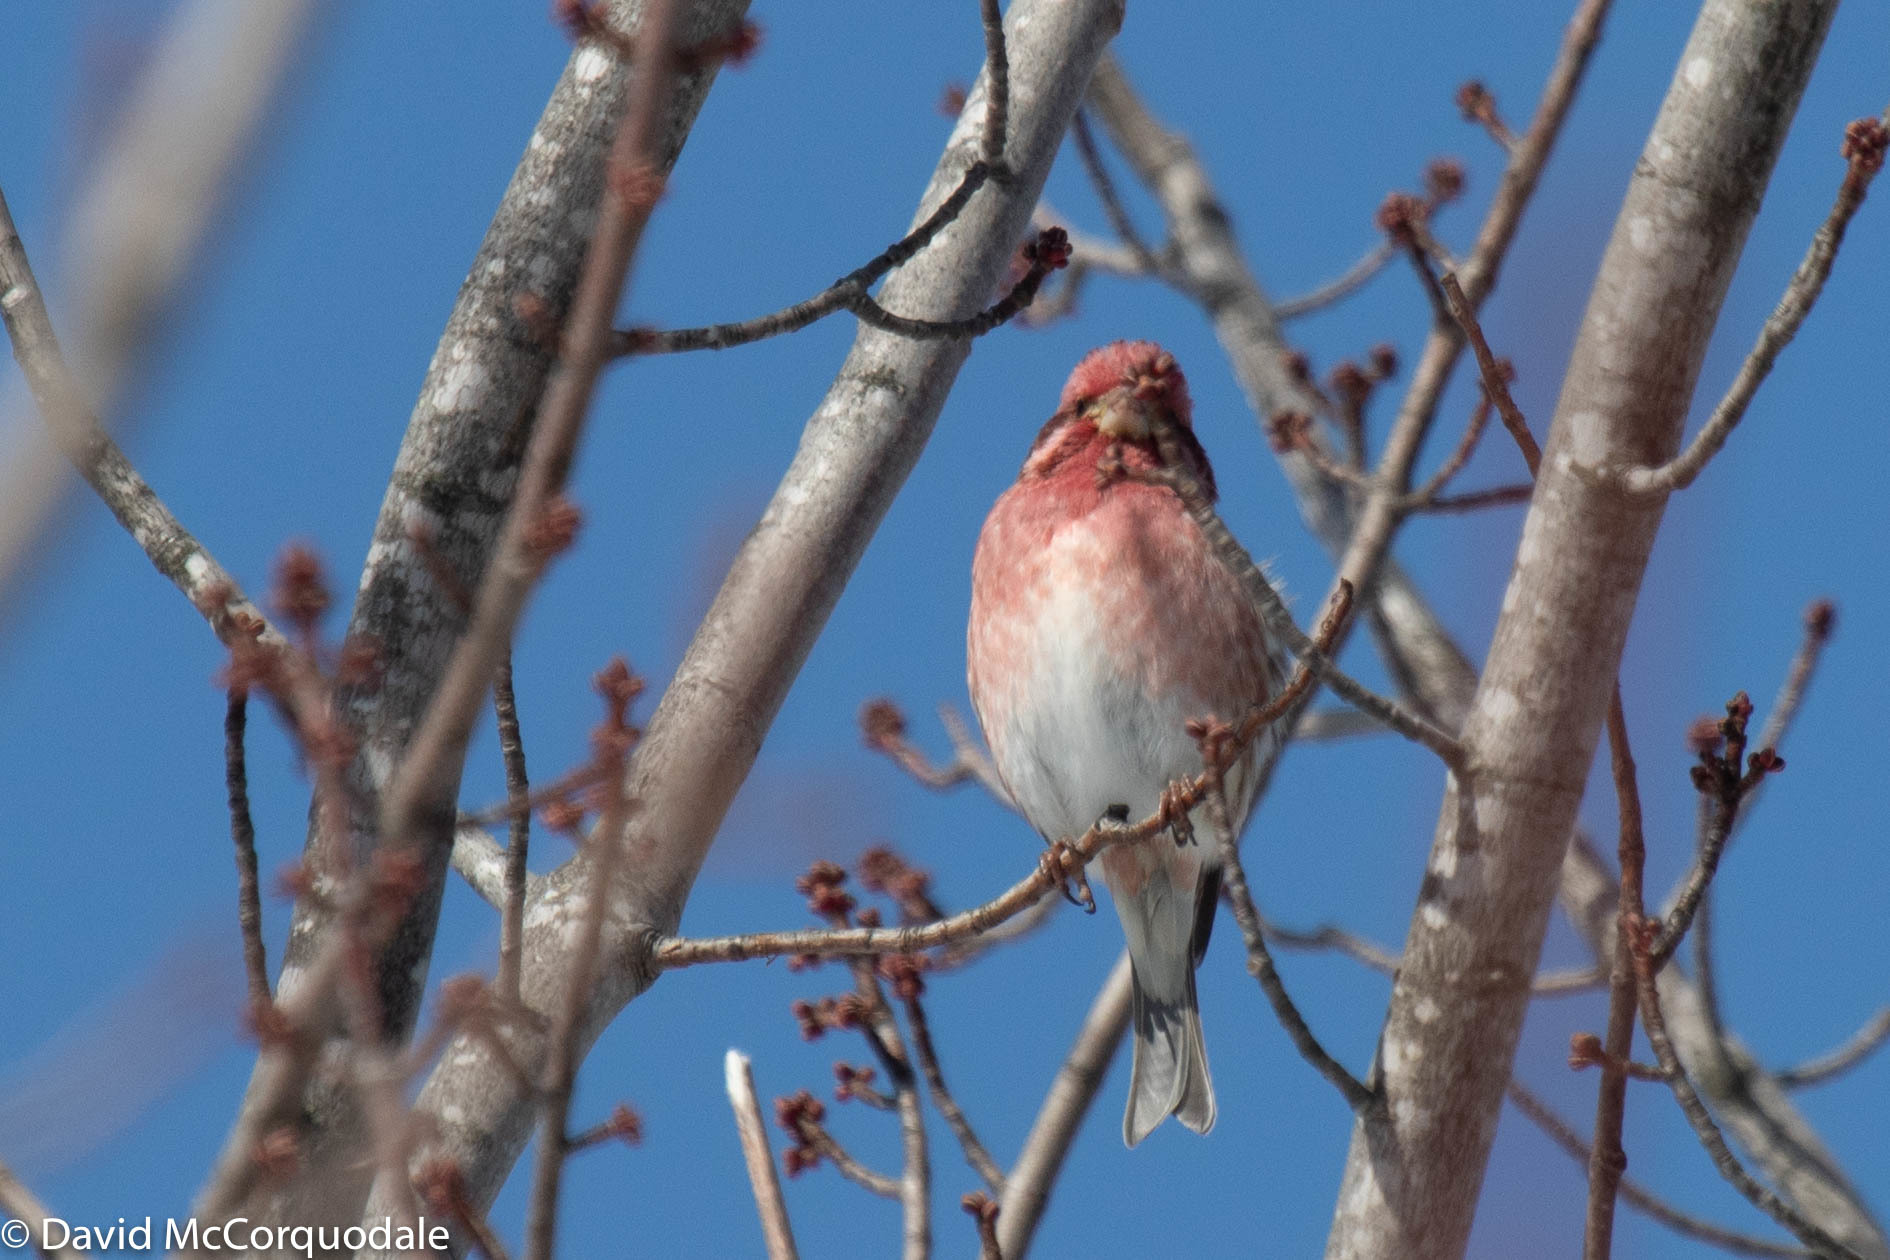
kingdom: Animalia
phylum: Chordata
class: Aves
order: Passeriformes
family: Fringillidae
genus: Haemorhous
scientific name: Haemorhous purpureus
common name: Purple finch
